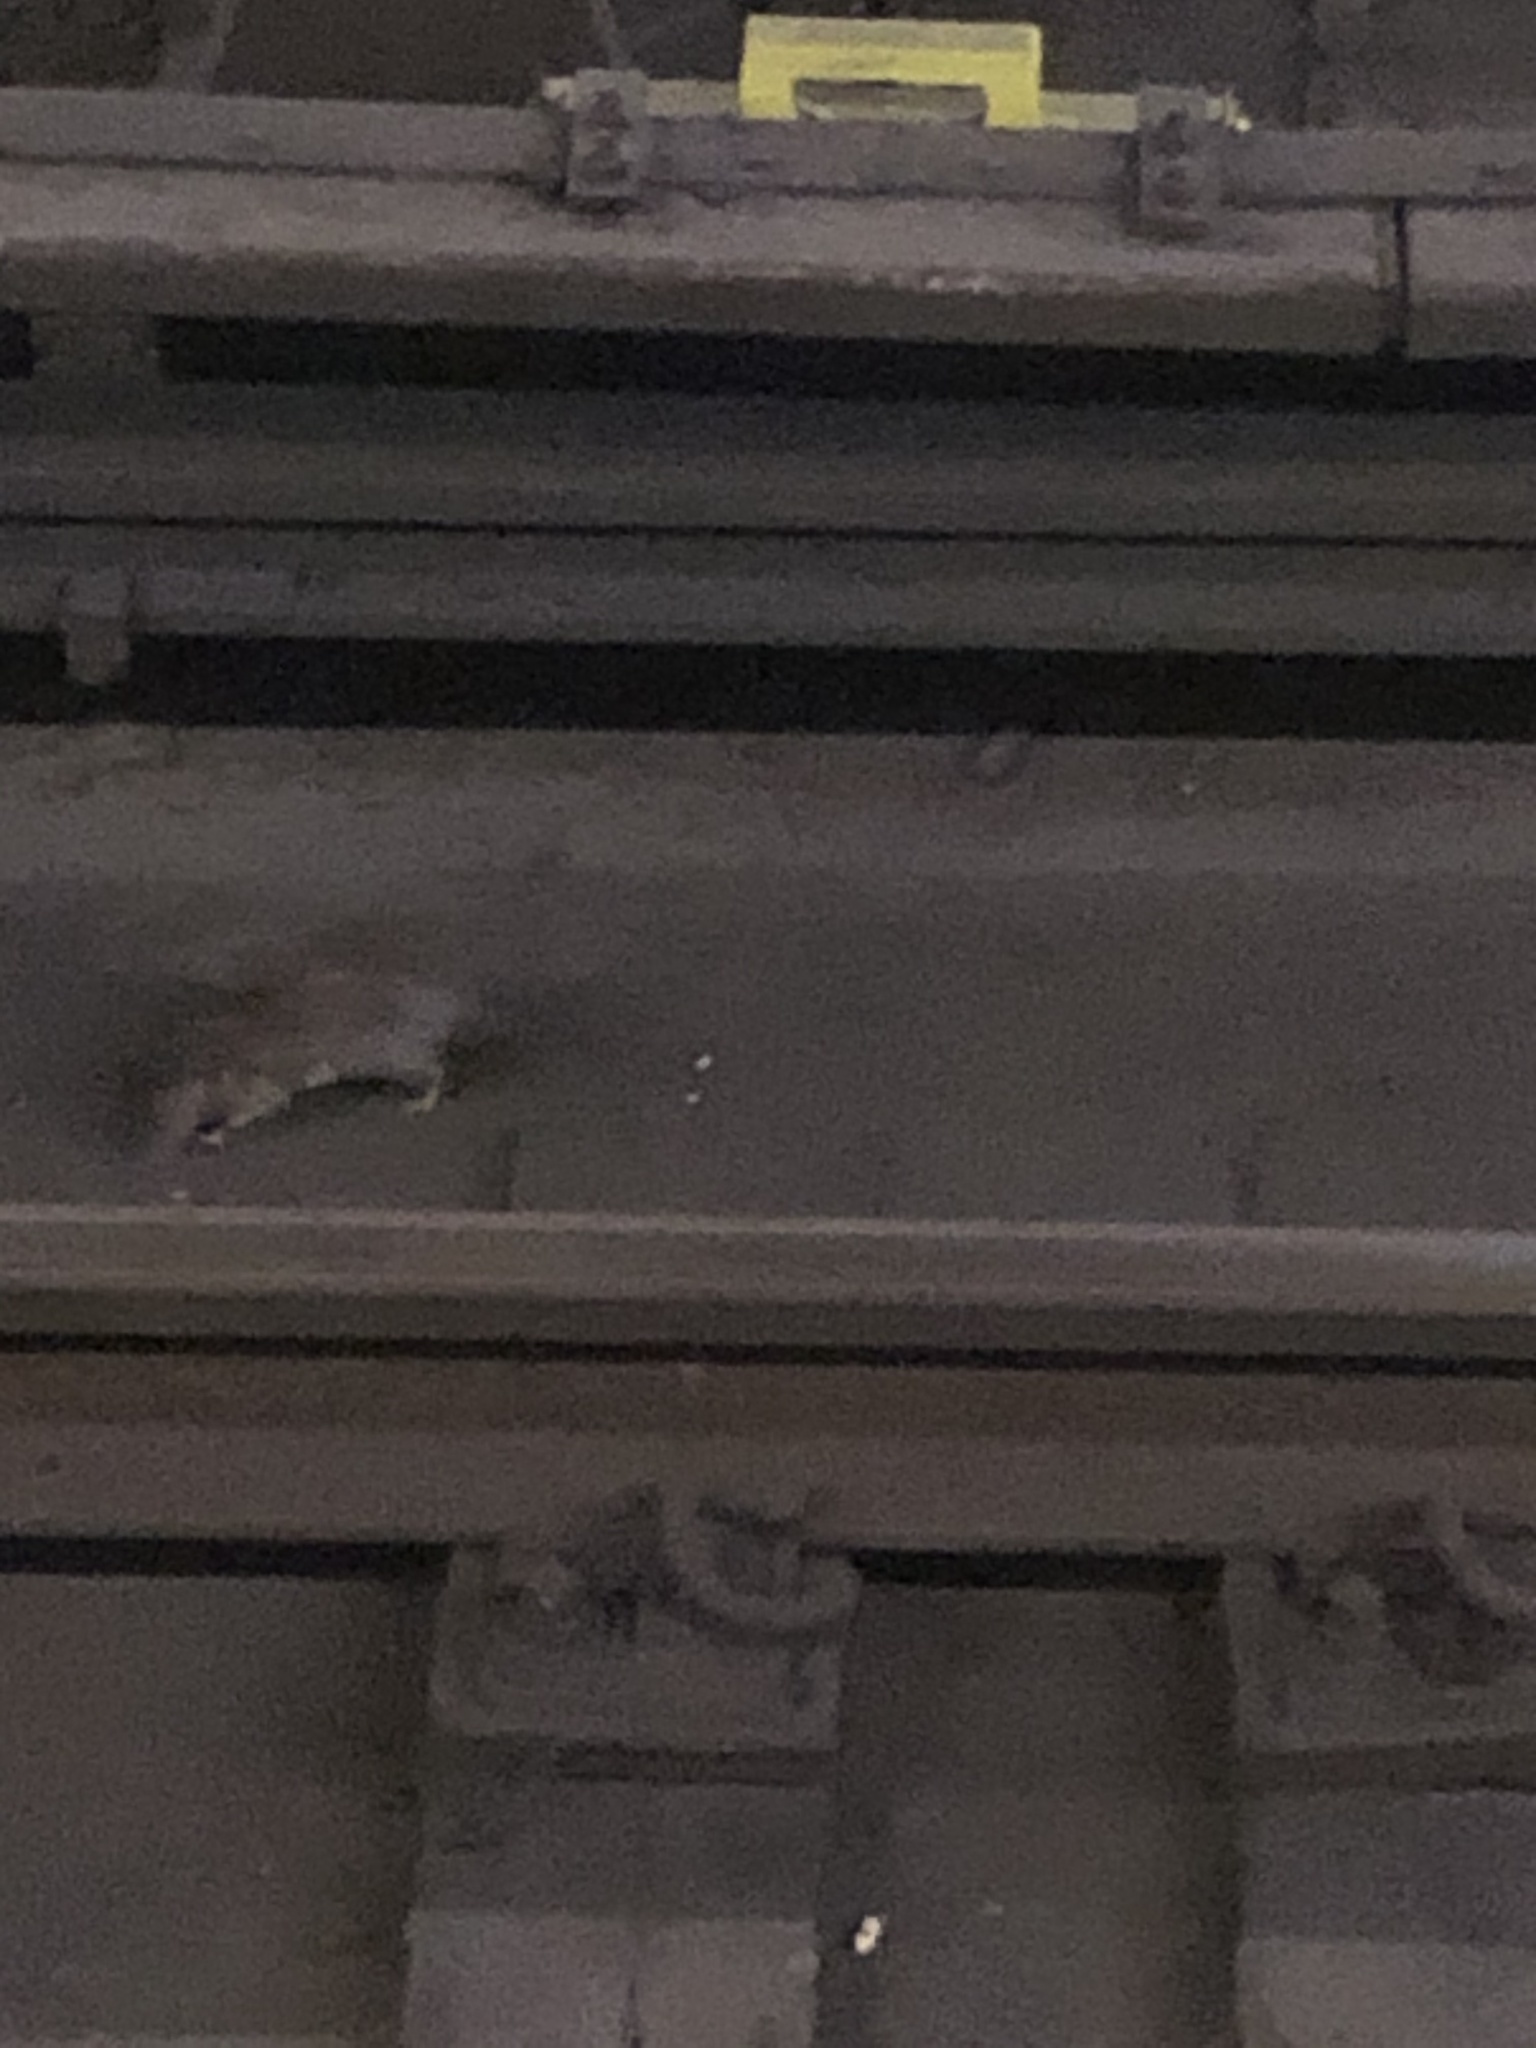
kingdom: Animalia
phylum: Chordata
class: Mammalia
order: Rodentia
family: Muridae
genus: Rattus
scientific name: Rattus norvegicus
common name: Brown rat
